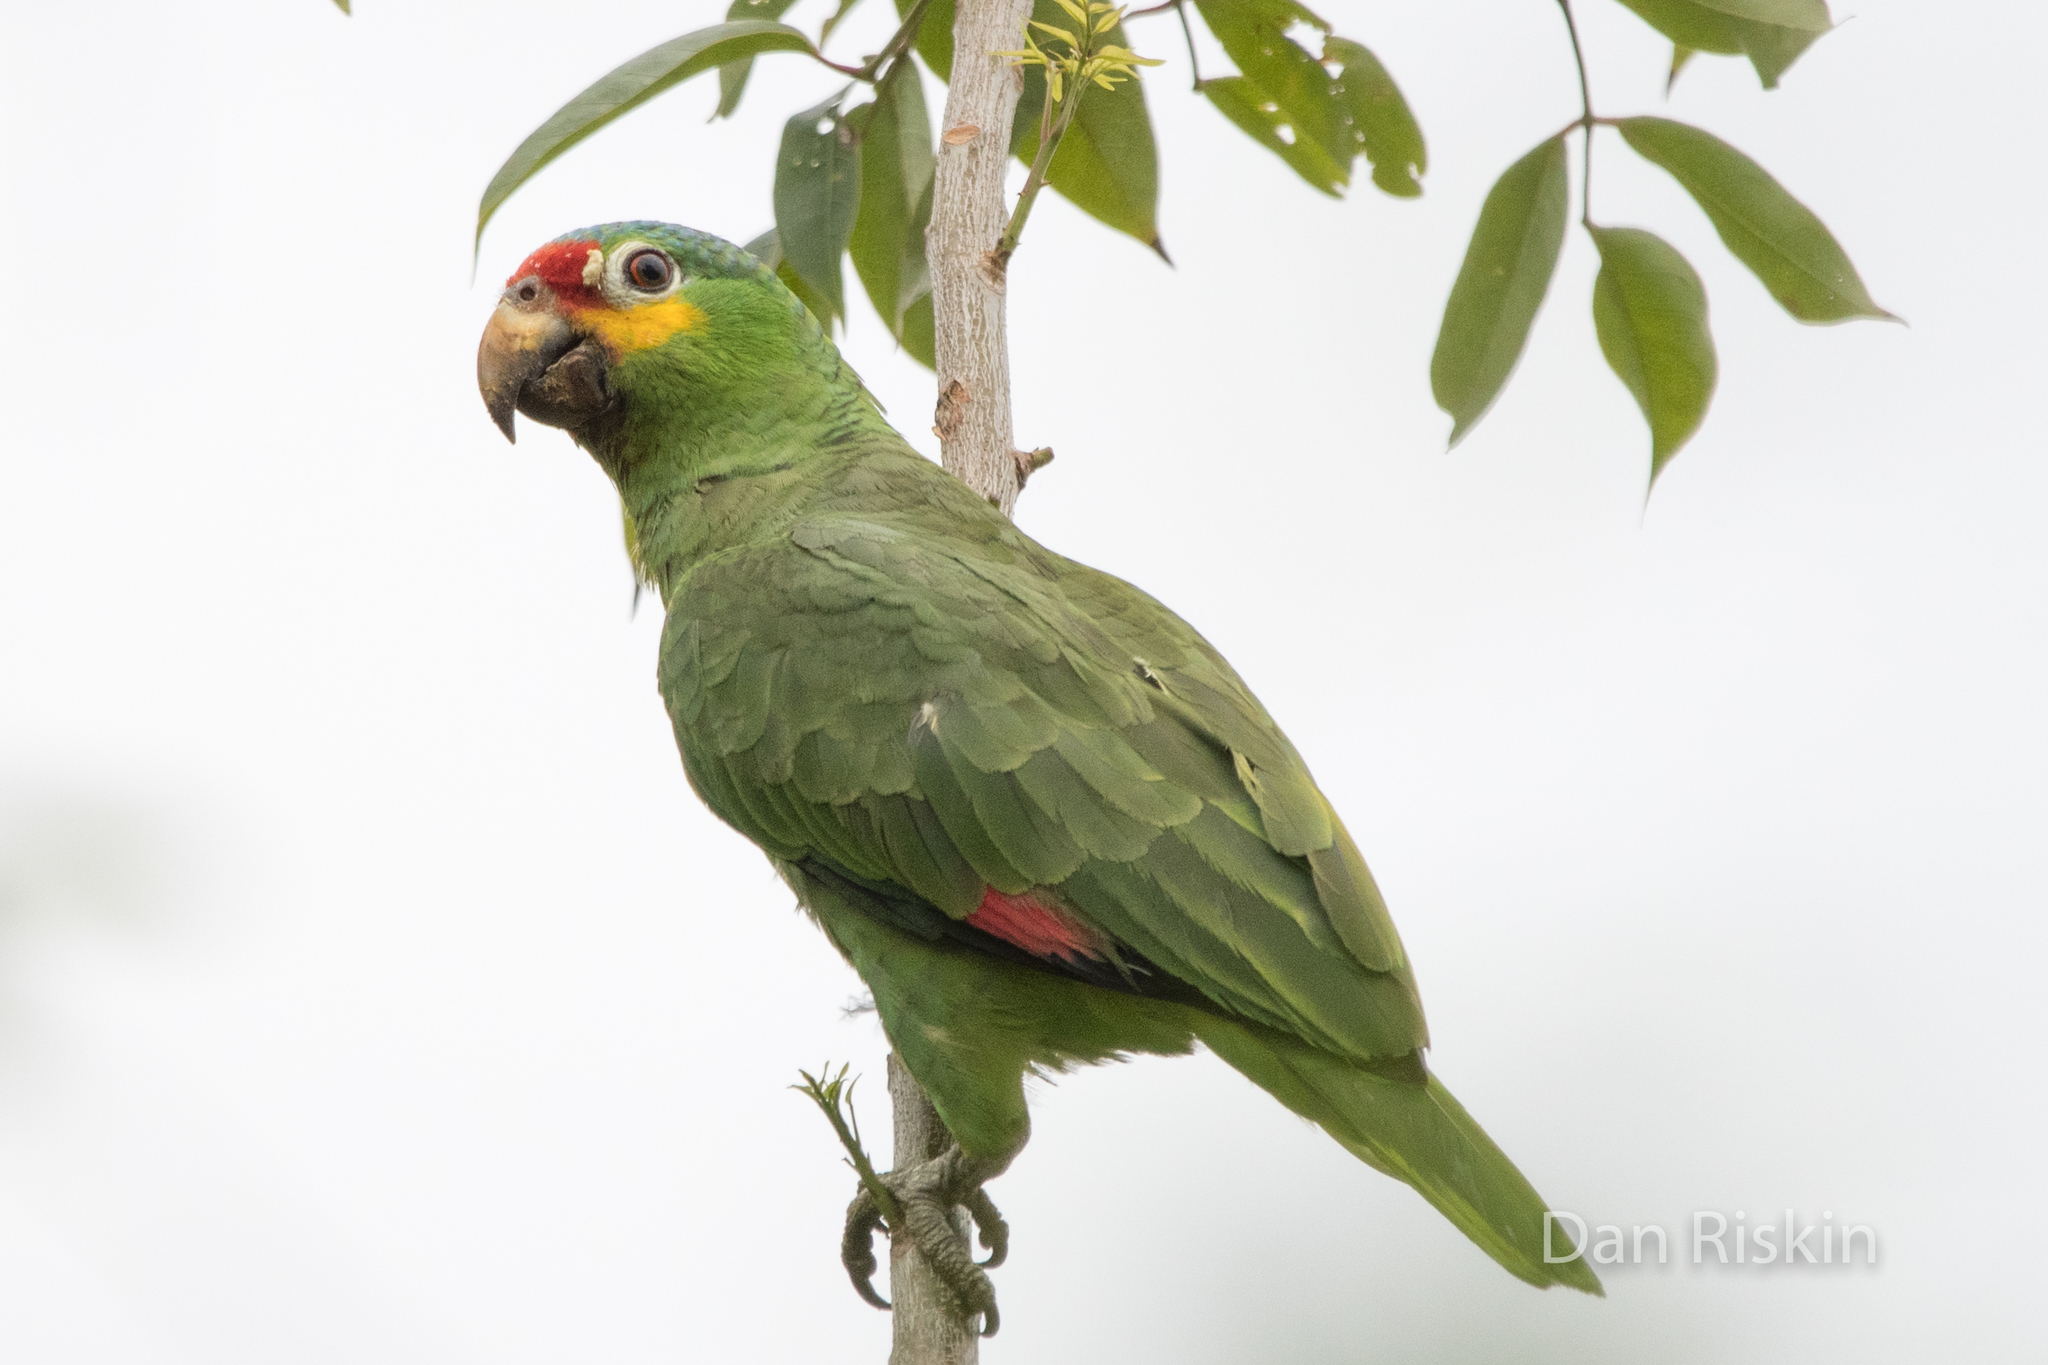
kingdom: Animalia
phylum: Chordata
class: Aves
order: Psittaciformes
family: Psittacidae
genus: Amazona
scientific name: Amazona autumnalis
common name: Red-lored amazon
